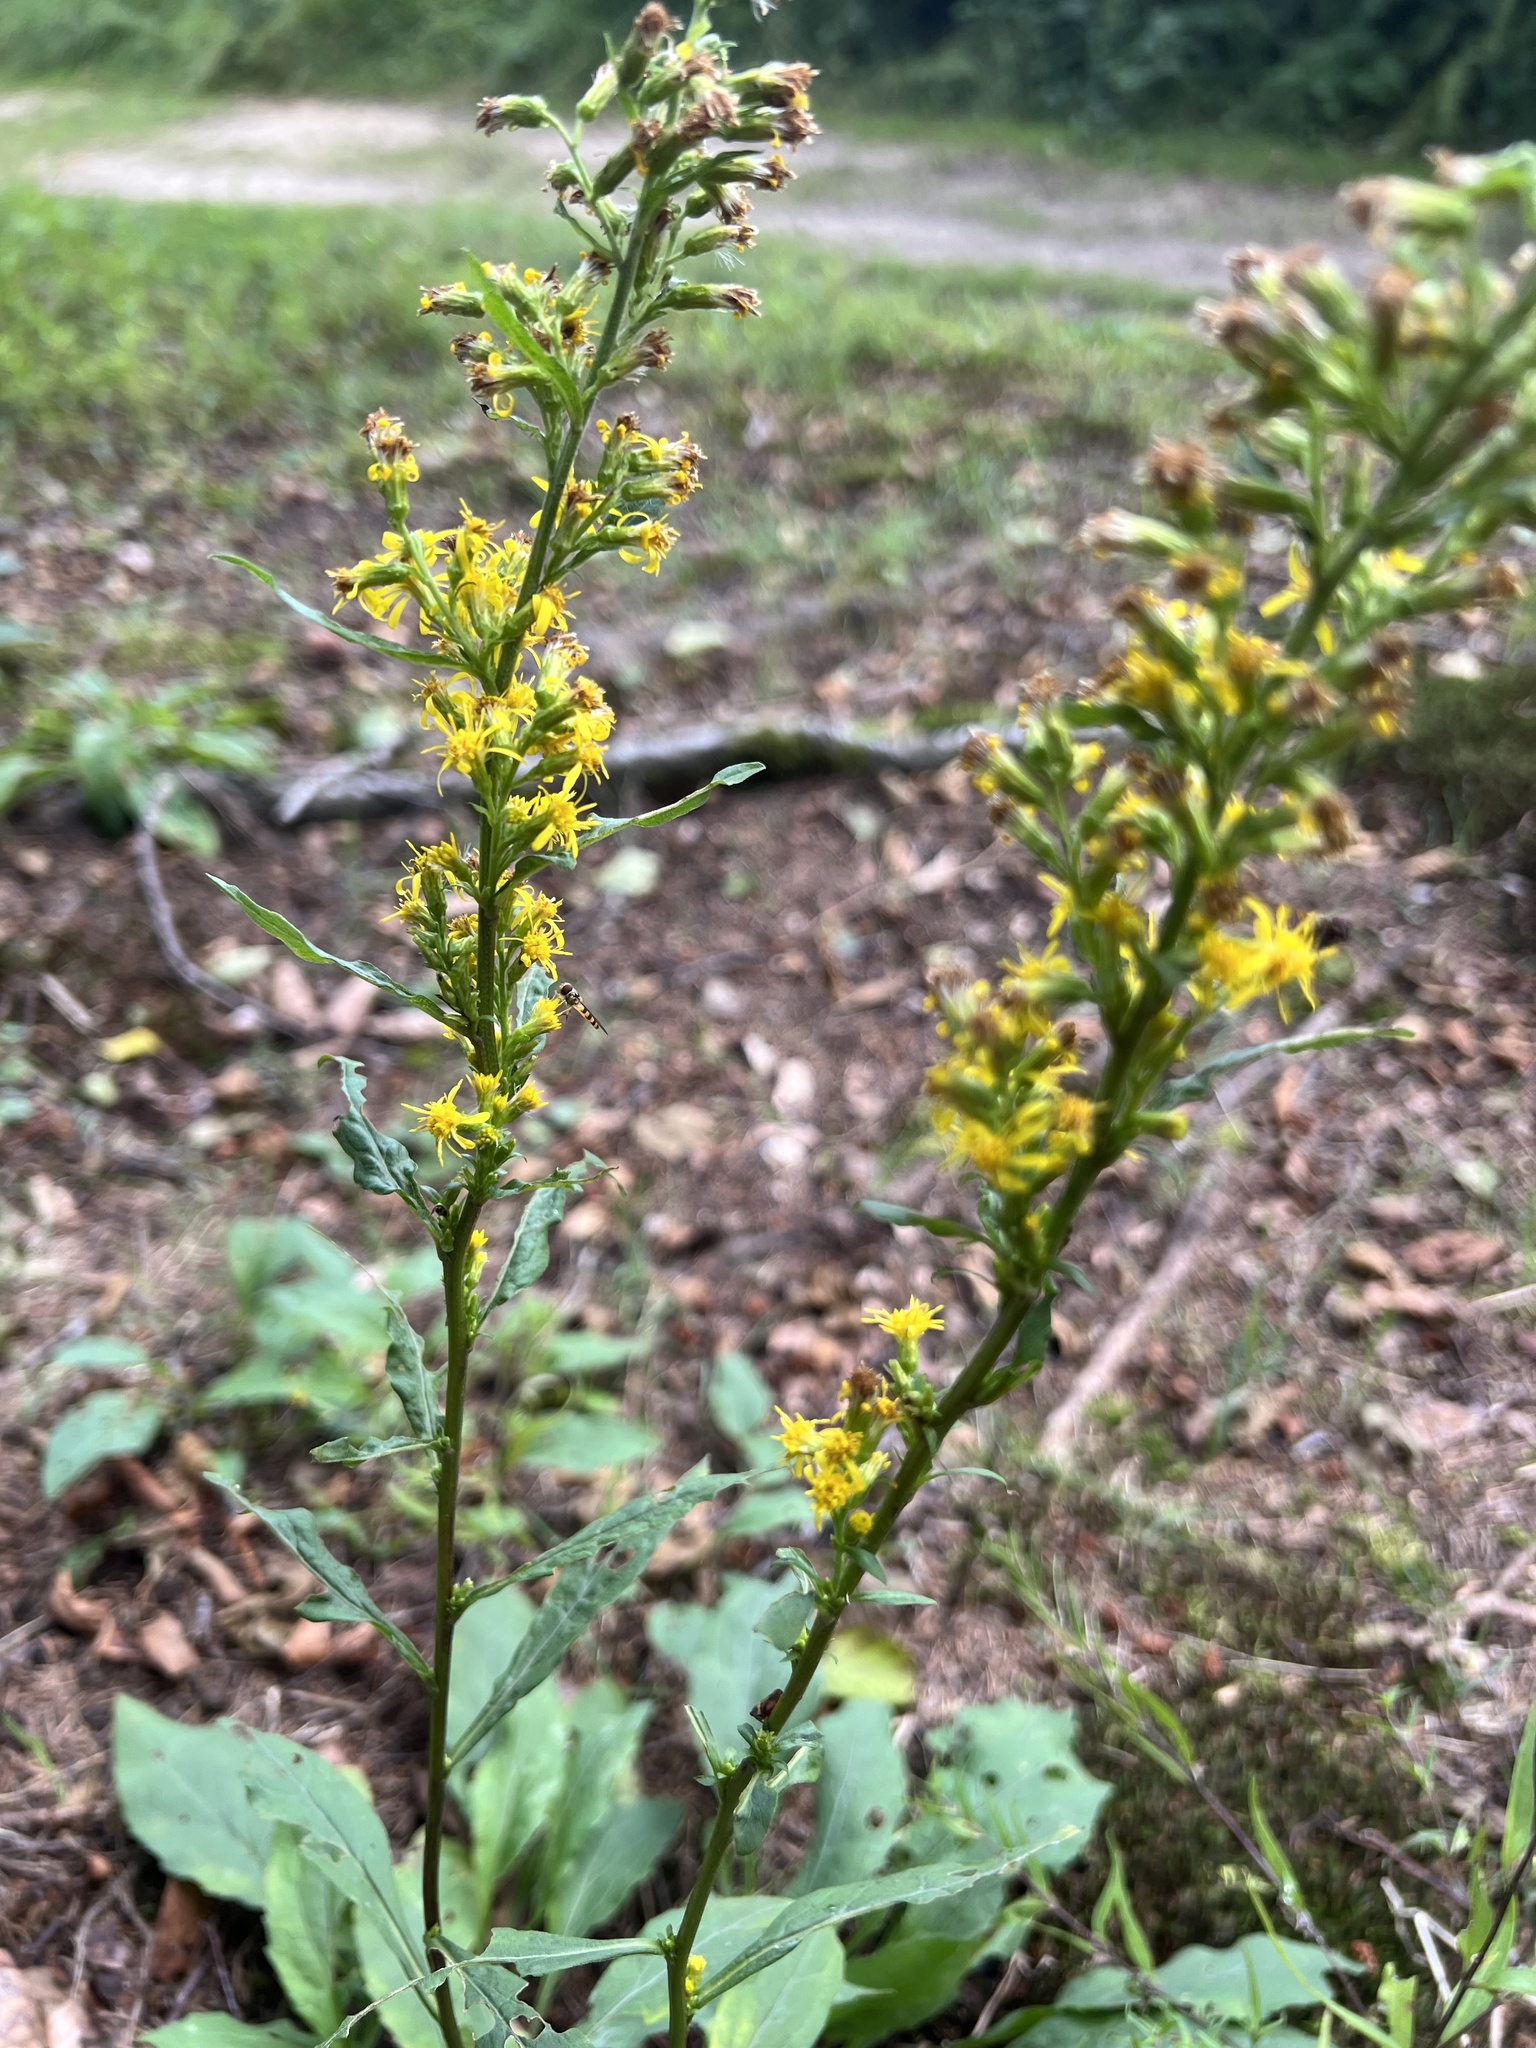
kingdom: Plantae
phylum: Tracheophyta
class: Magnoliopsida
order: Asterales
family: Asteraceae
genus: Solidago
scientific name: Solidago virgaurea
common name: Goldenrod
